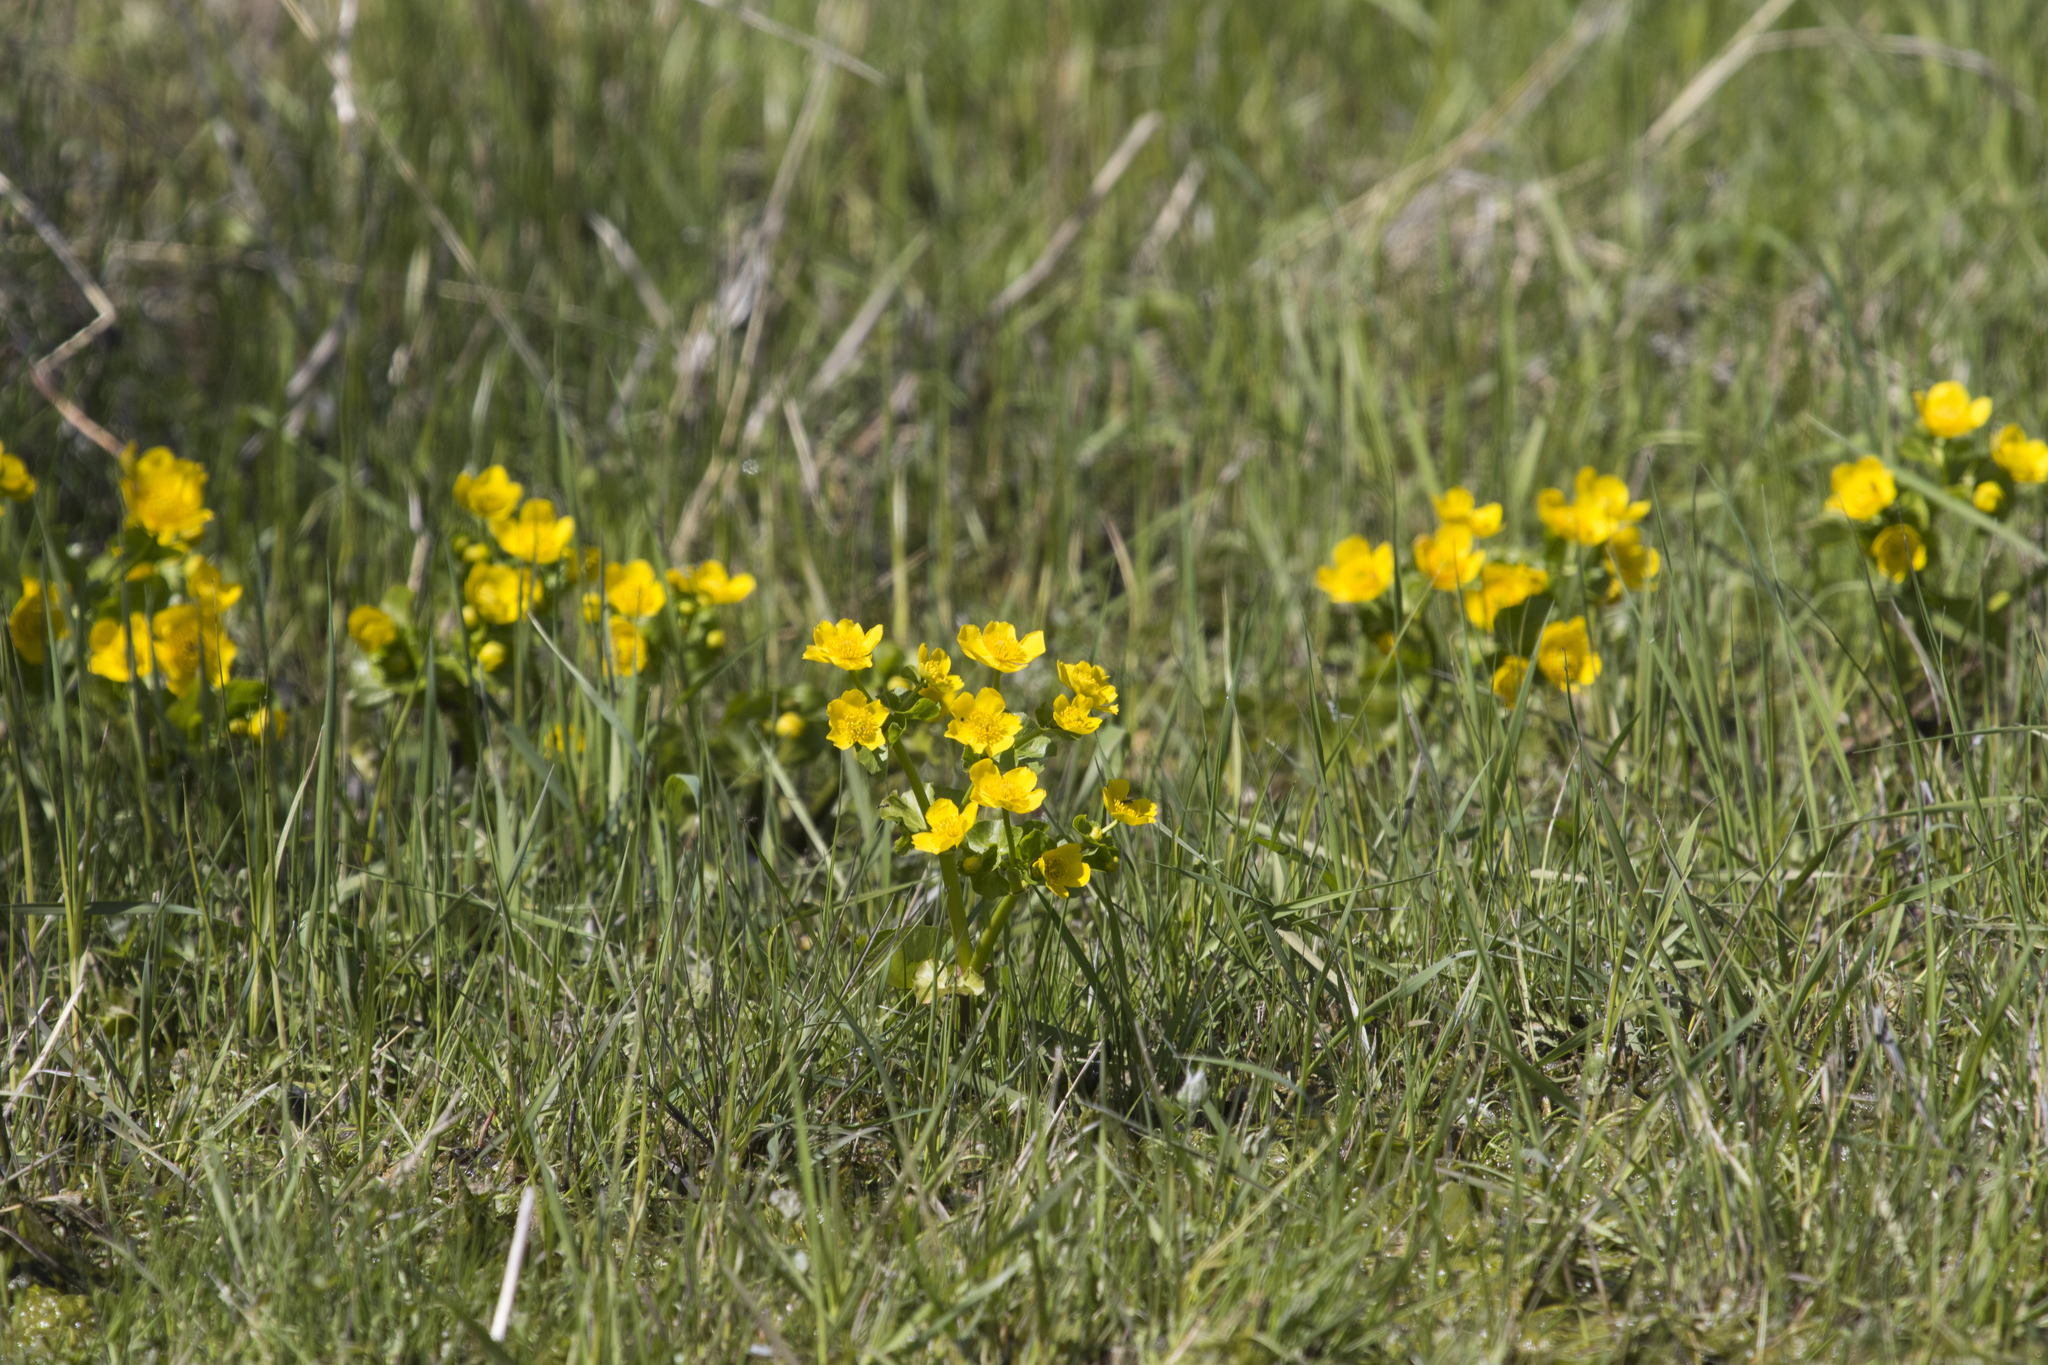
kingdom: Plantae
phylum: Tracheophyta
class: Magnoliopsida
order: Ranunculales
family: Ranunculaceae
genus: Caltha
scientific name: Caltha palustris
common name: Marsh marigold
